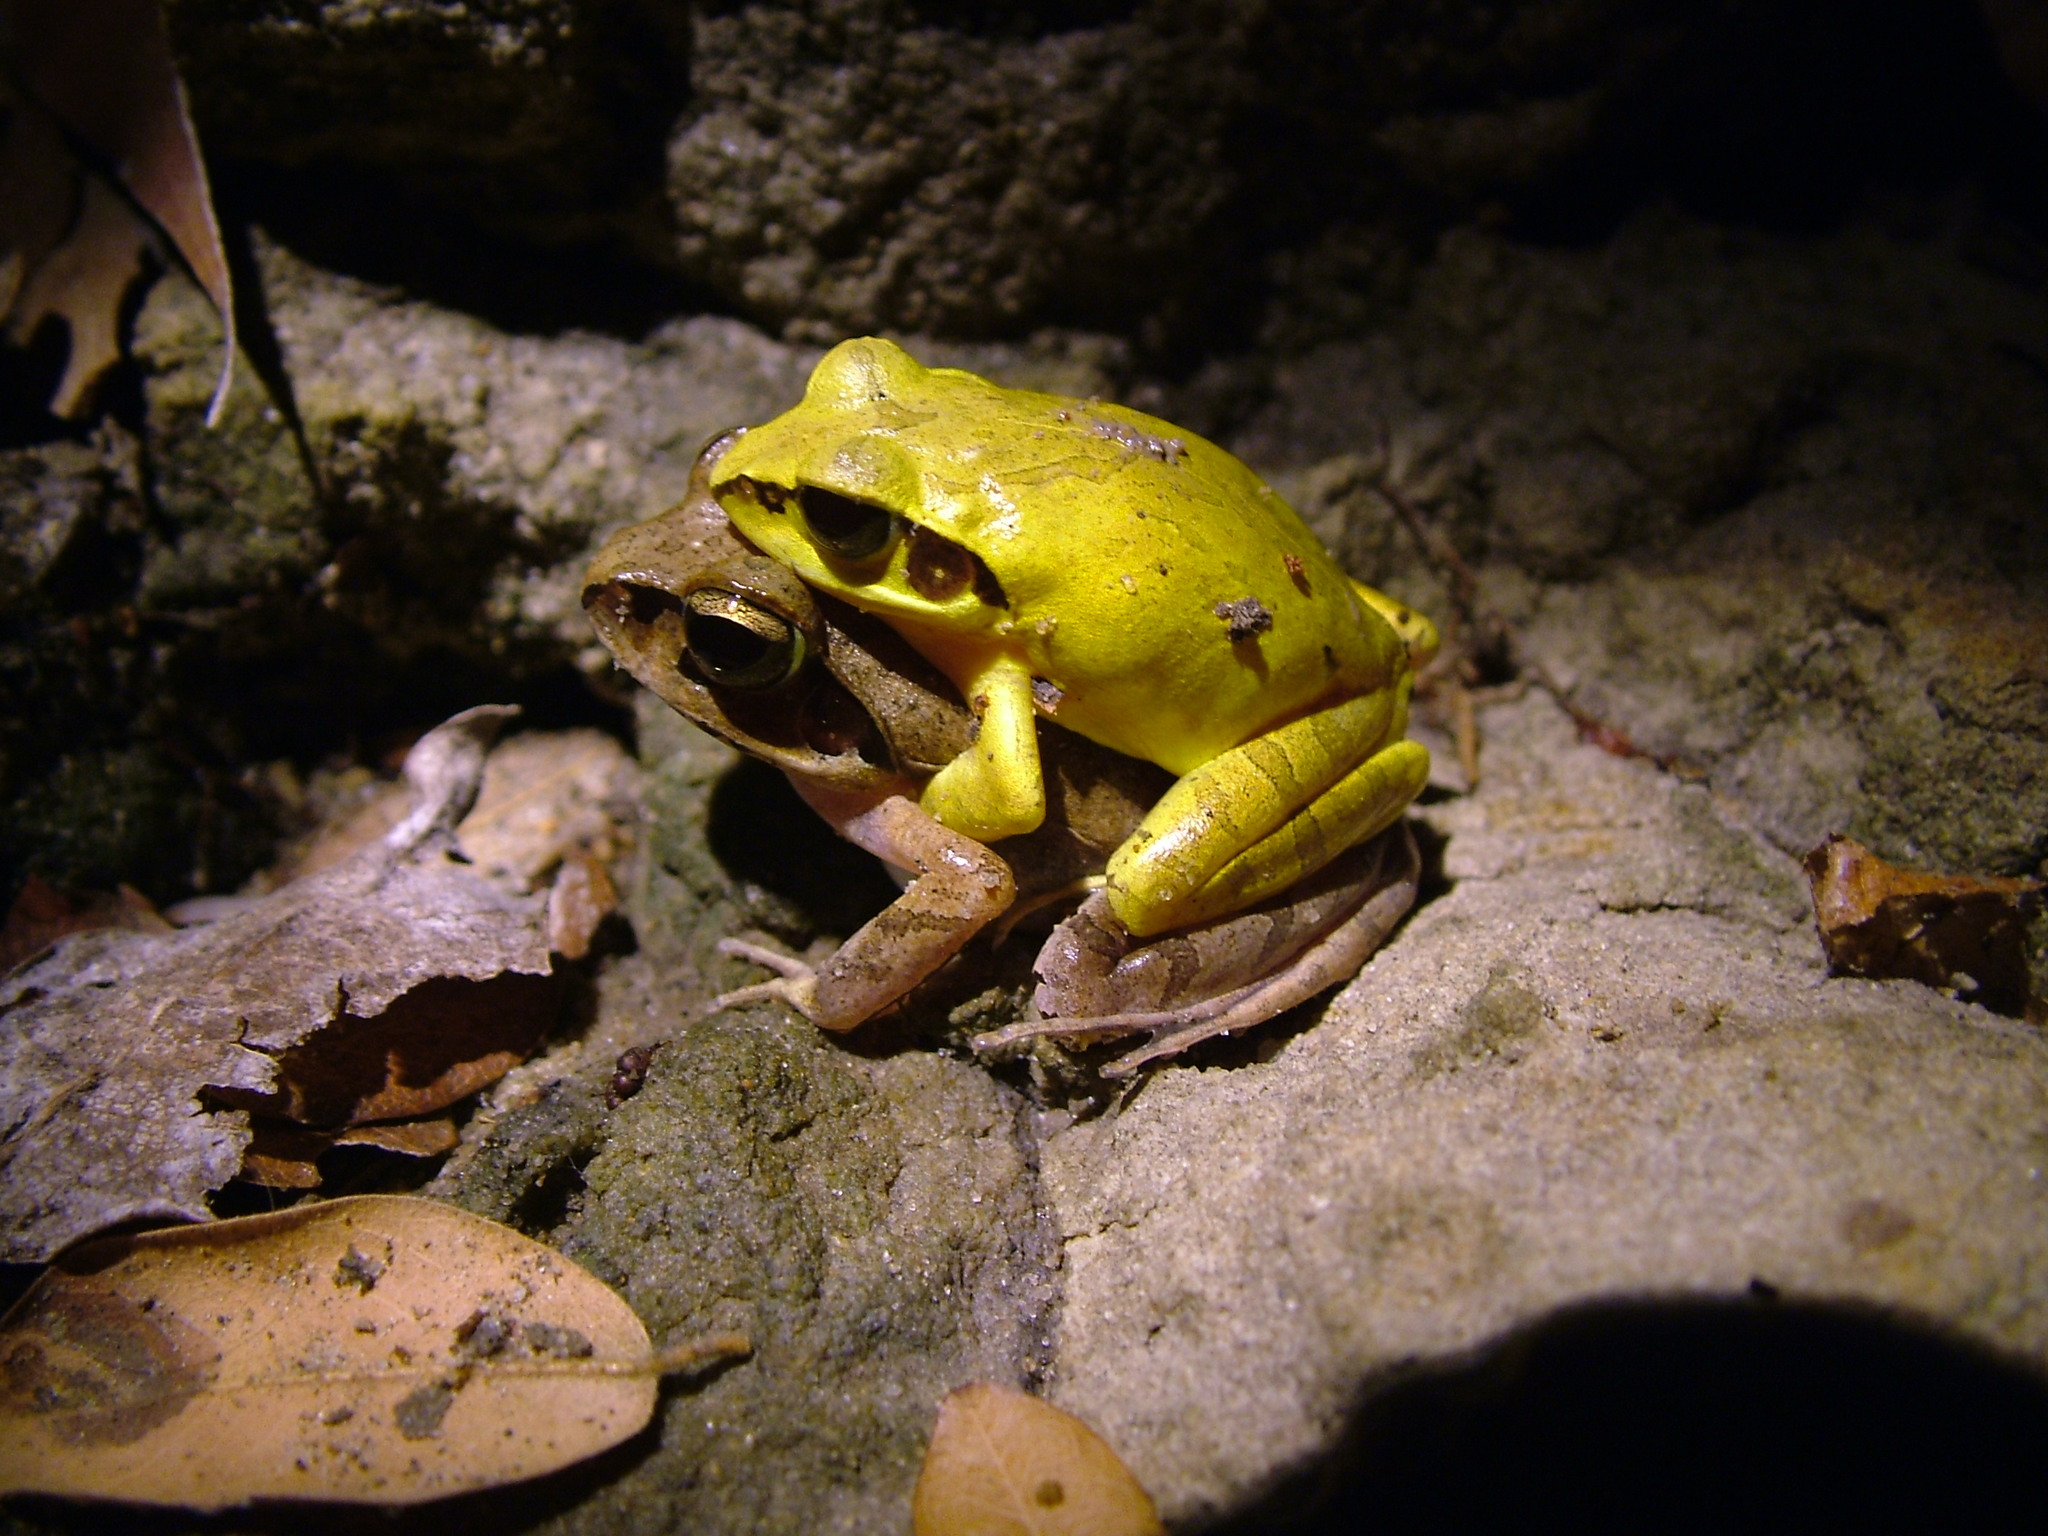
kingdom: Animalia
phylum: Chordata
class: Amphibia
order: Anura
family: Mantellidae
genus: Aglyptodactylus
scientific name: Aglyptodactylus laticeps
